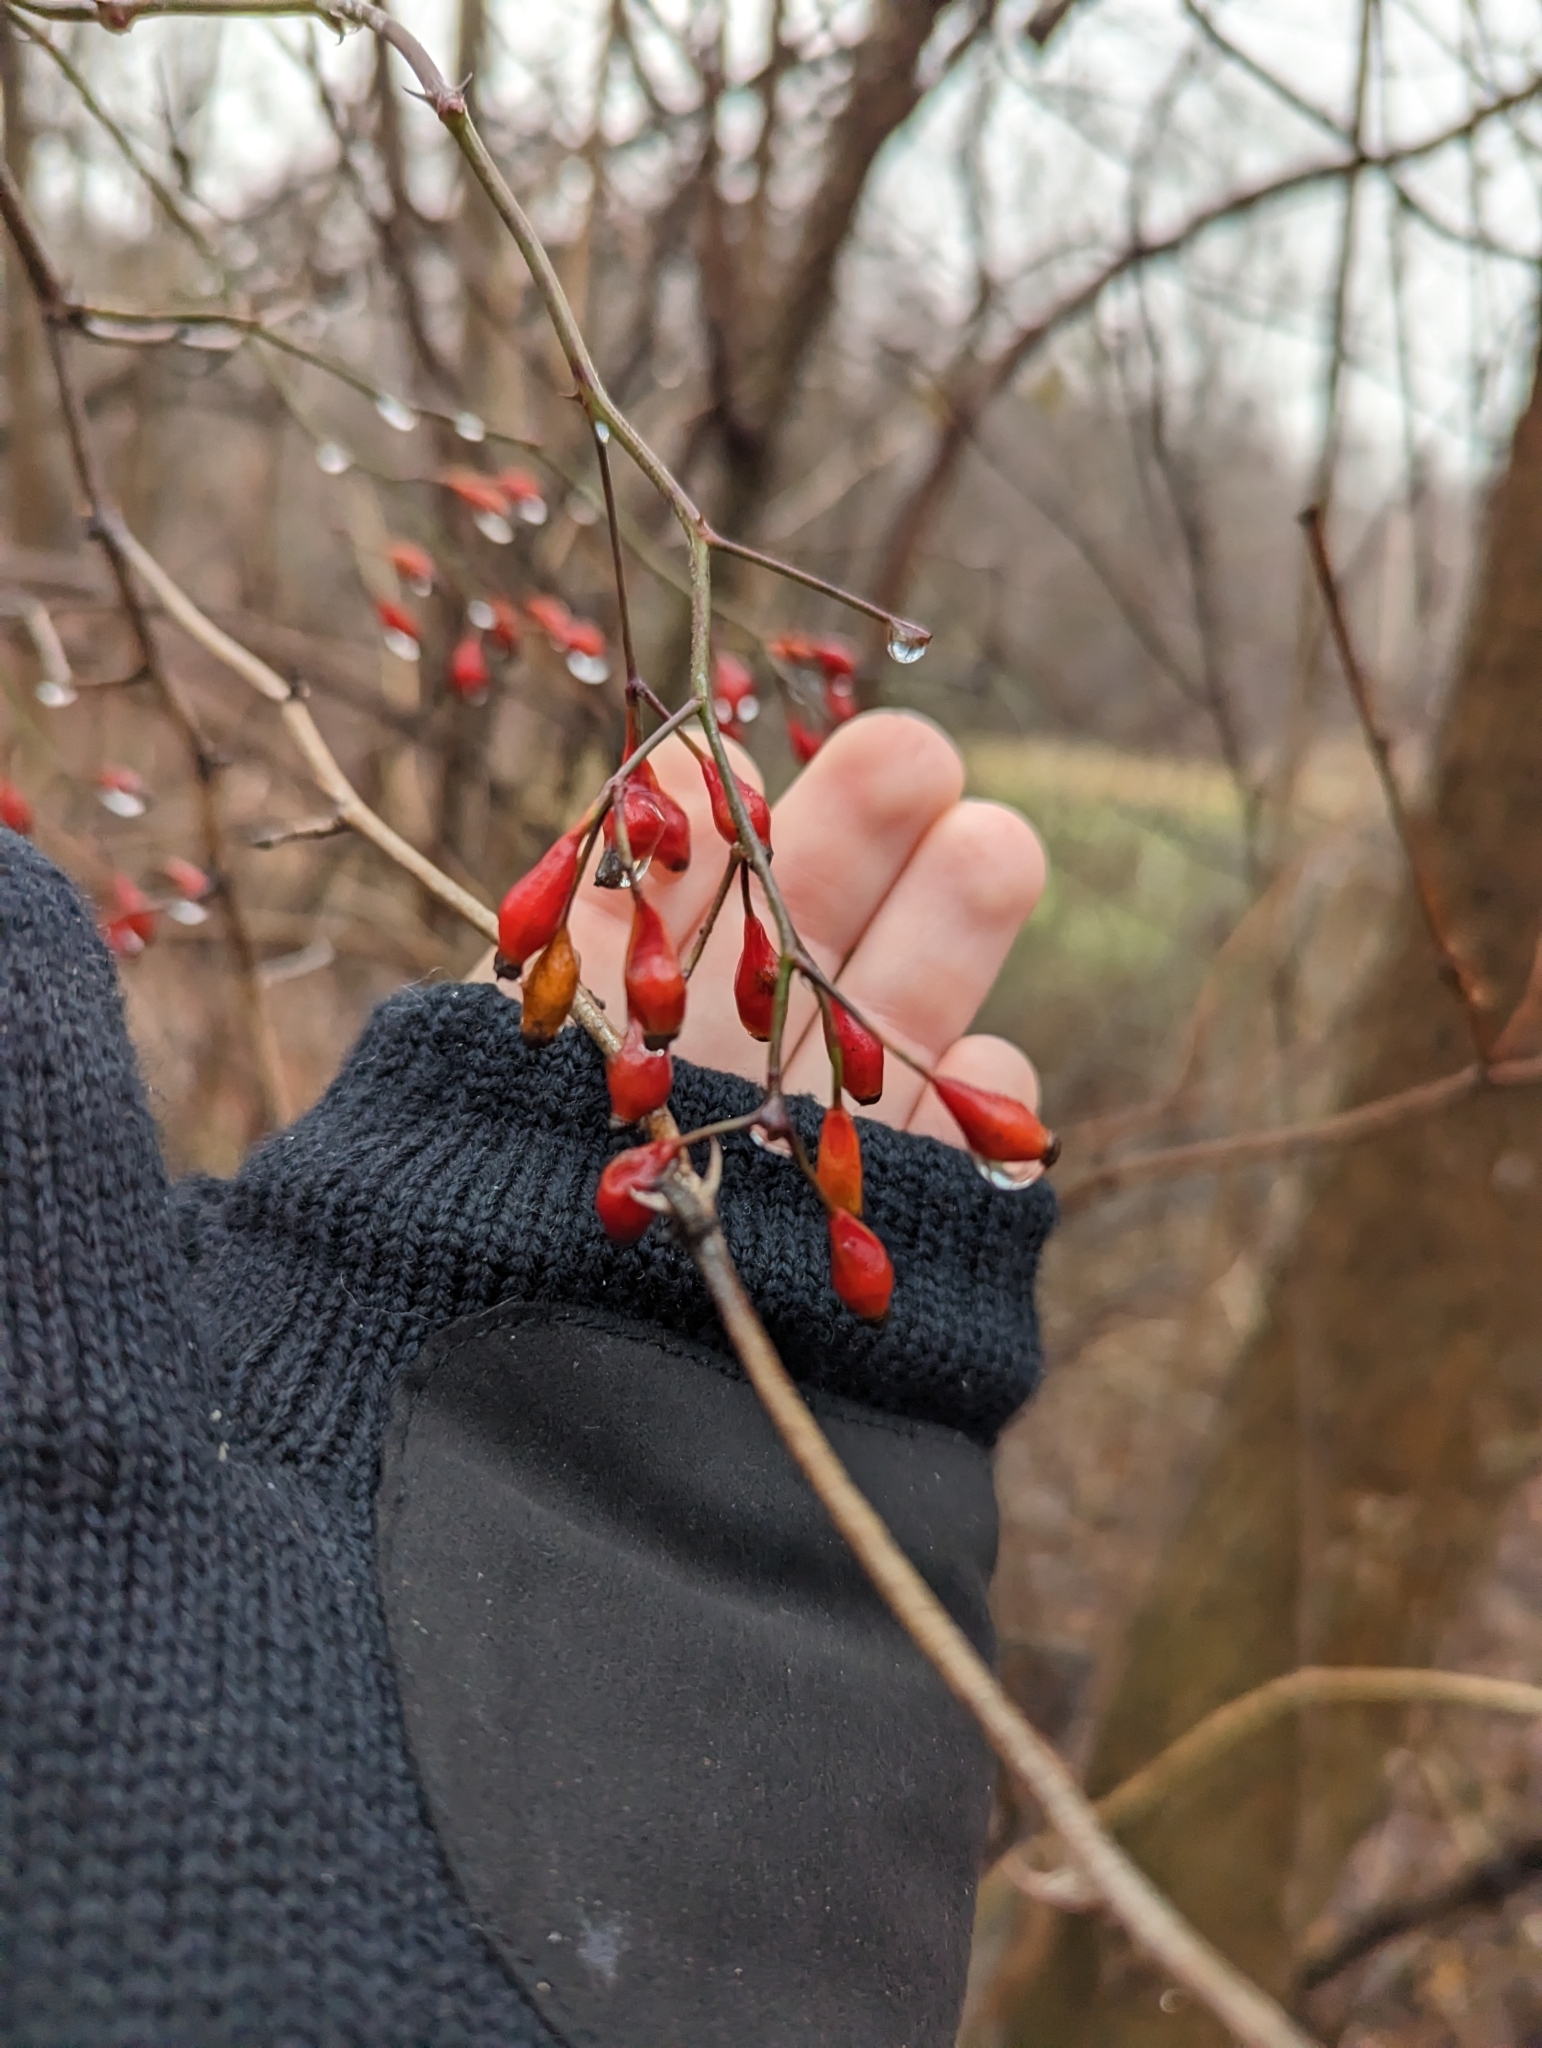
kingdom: Plantae
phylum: Tracheophyta
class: Magnoliopsida
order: Rosales
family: Rosaceae
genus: Rosa
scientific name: Rosa multiflora
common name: Multiflora rose
